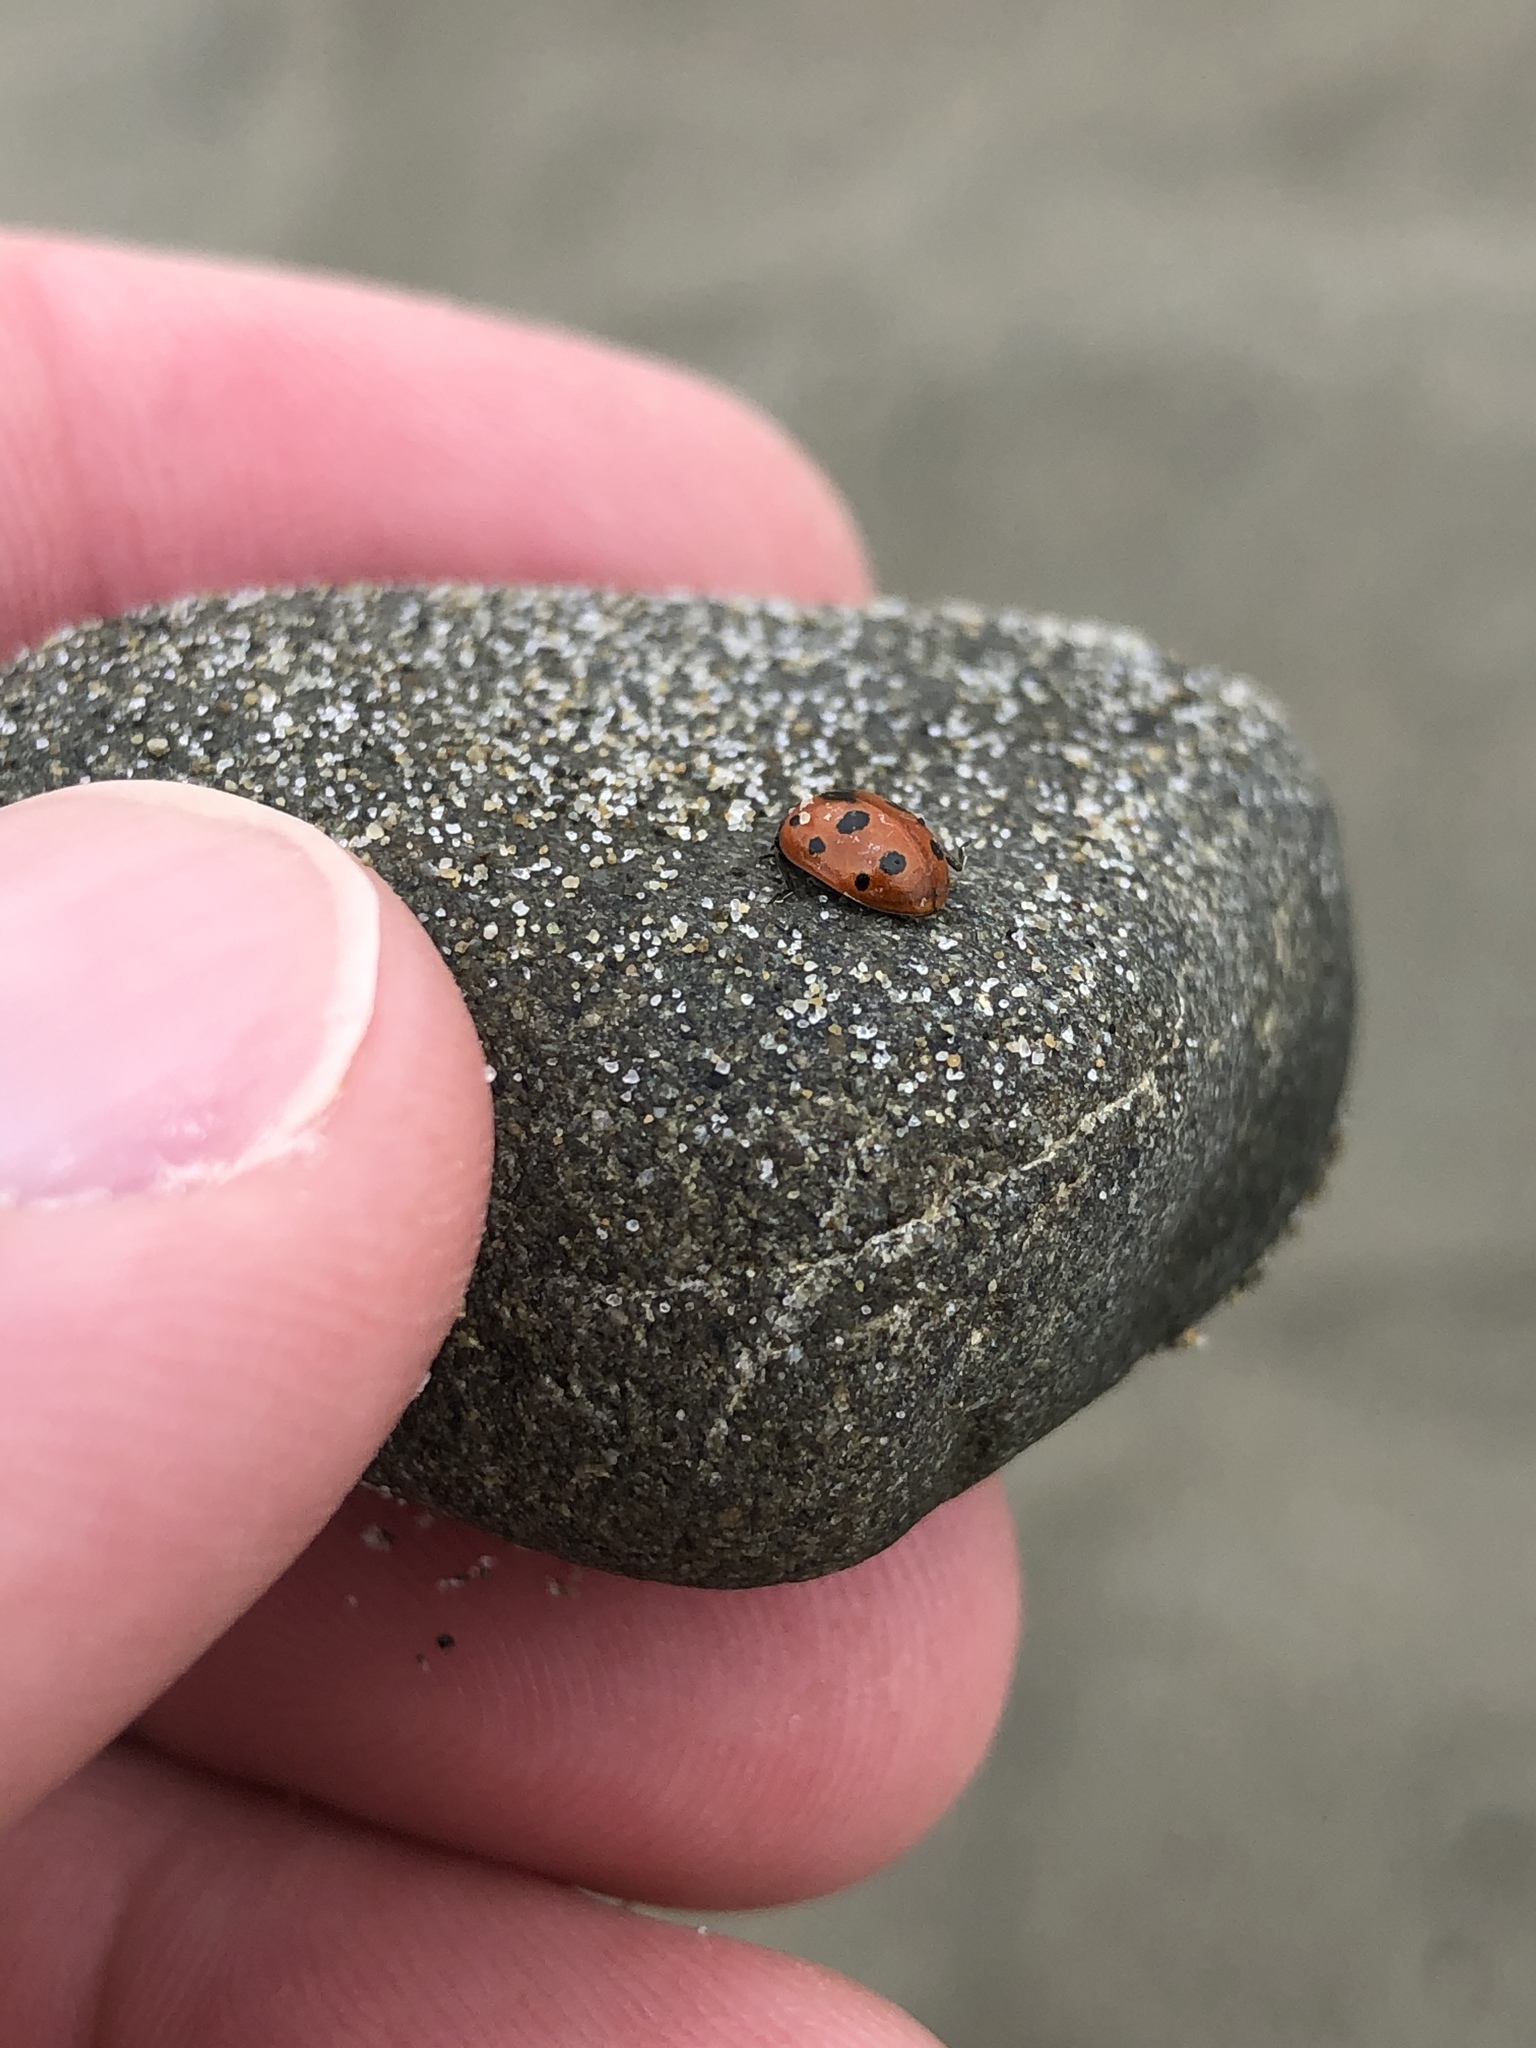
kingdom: Animalia
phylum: Arthropoda
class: Insecta
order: Coleoptera
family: Coccinellidae
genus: Coccinella
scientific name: Coccinella undecimpunctata
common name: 11-spot ladybird
